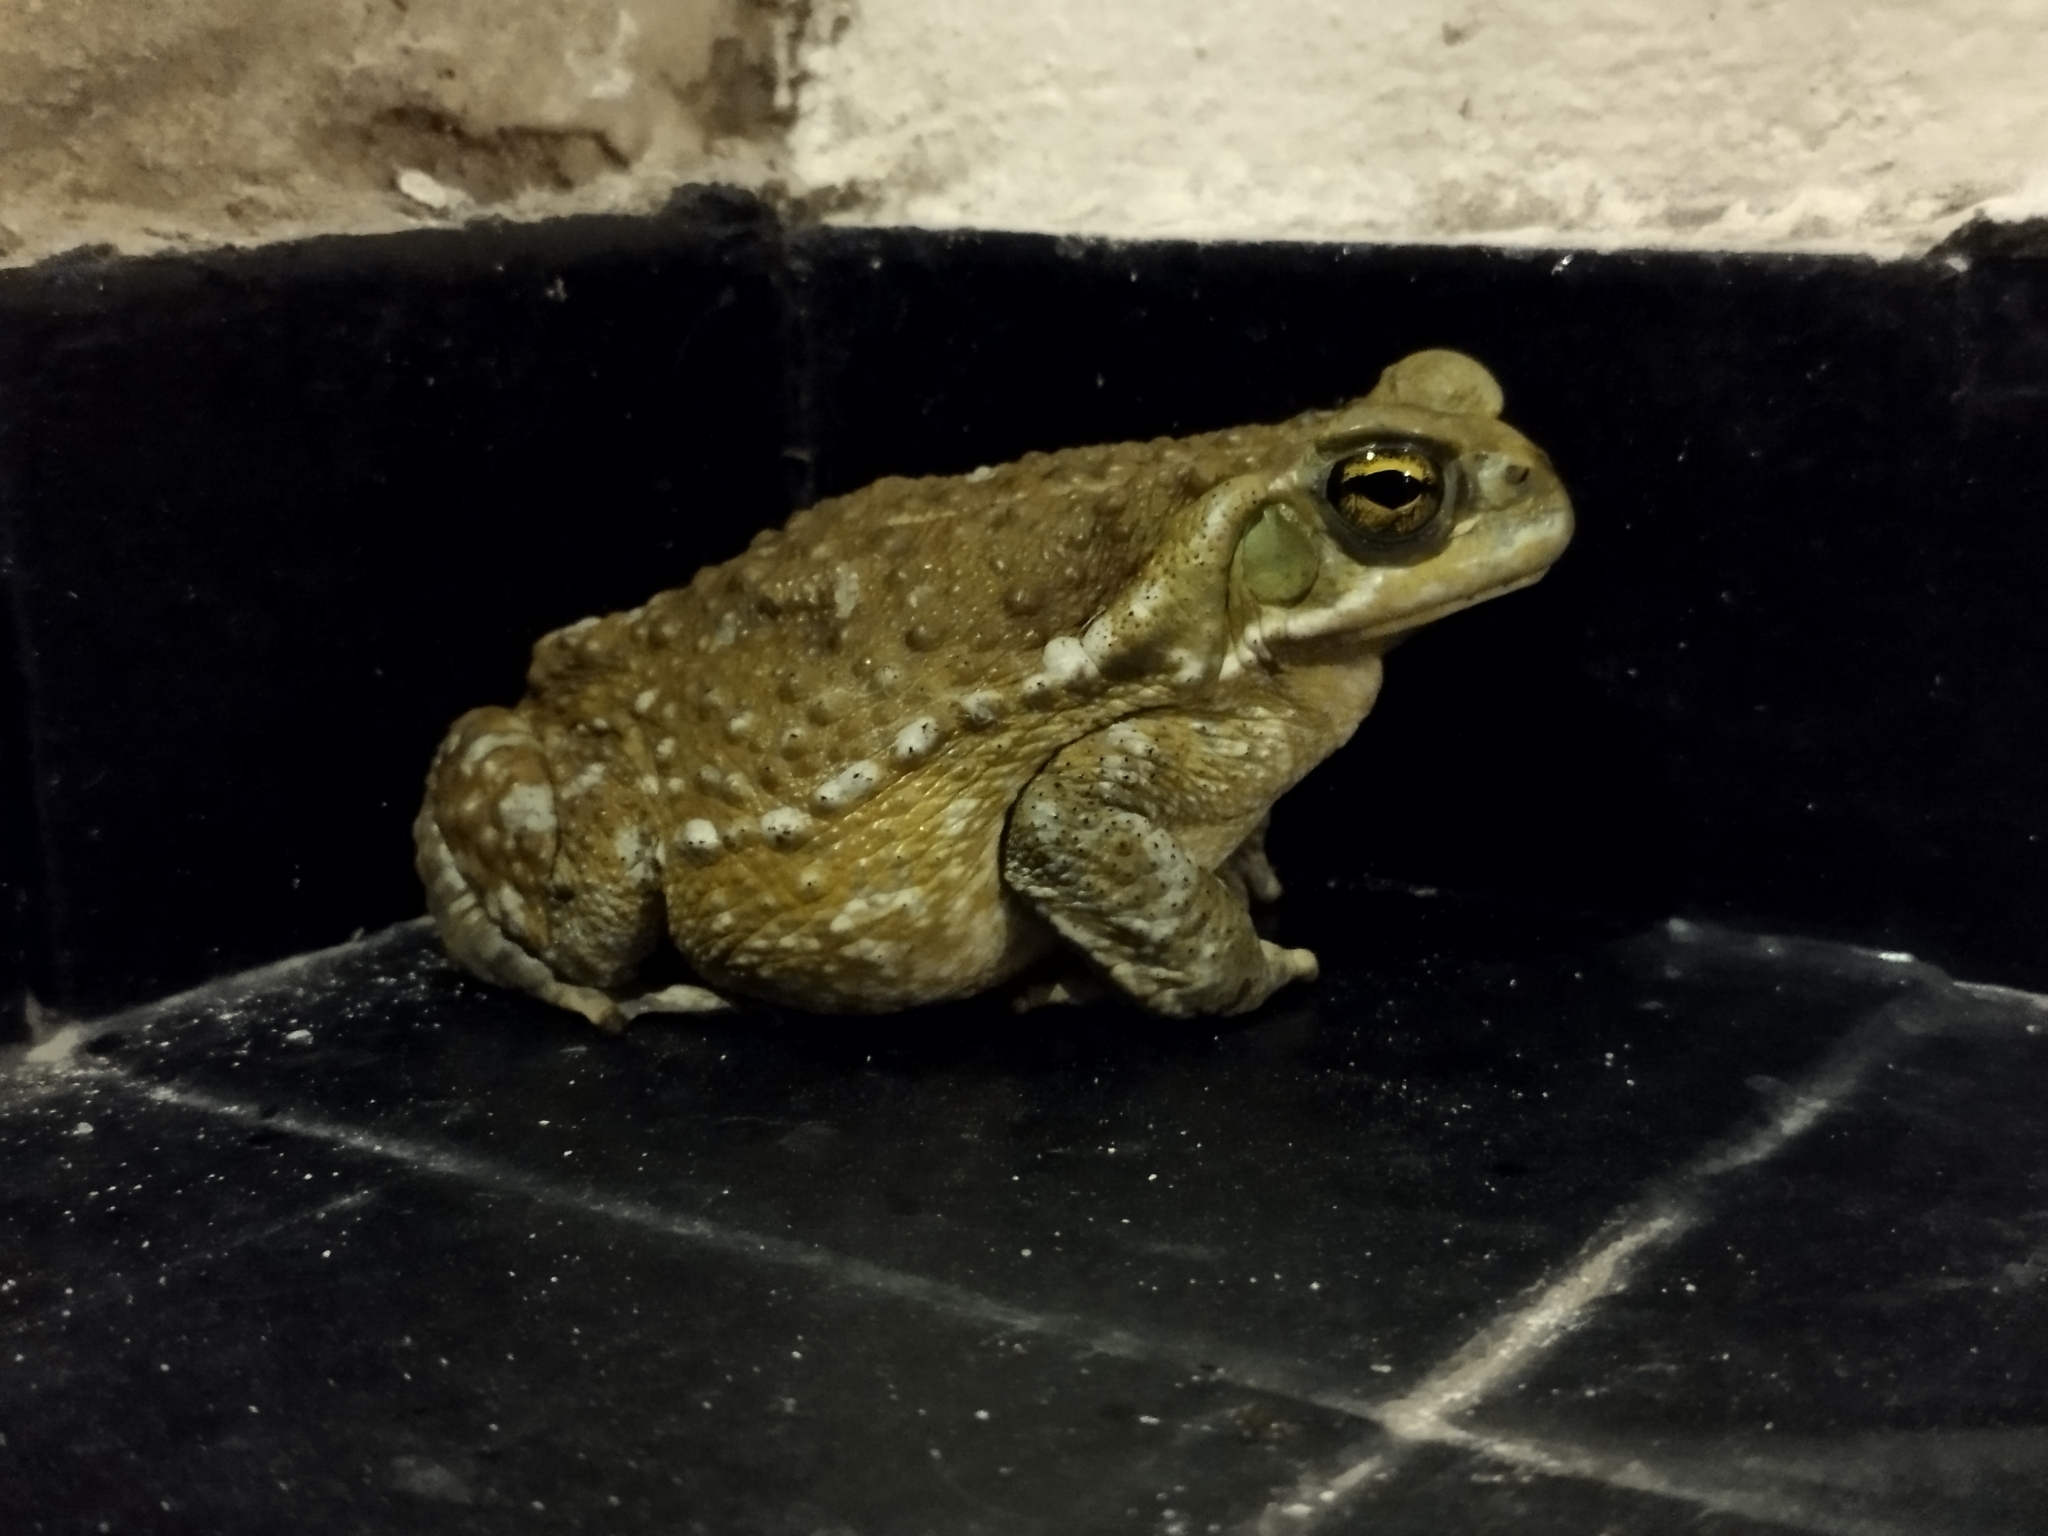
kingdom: Animalia
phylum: Chordata
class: Amphibia
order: Anura
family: Bufonidae
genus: Rhinella
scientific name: Rhinella arenarum
